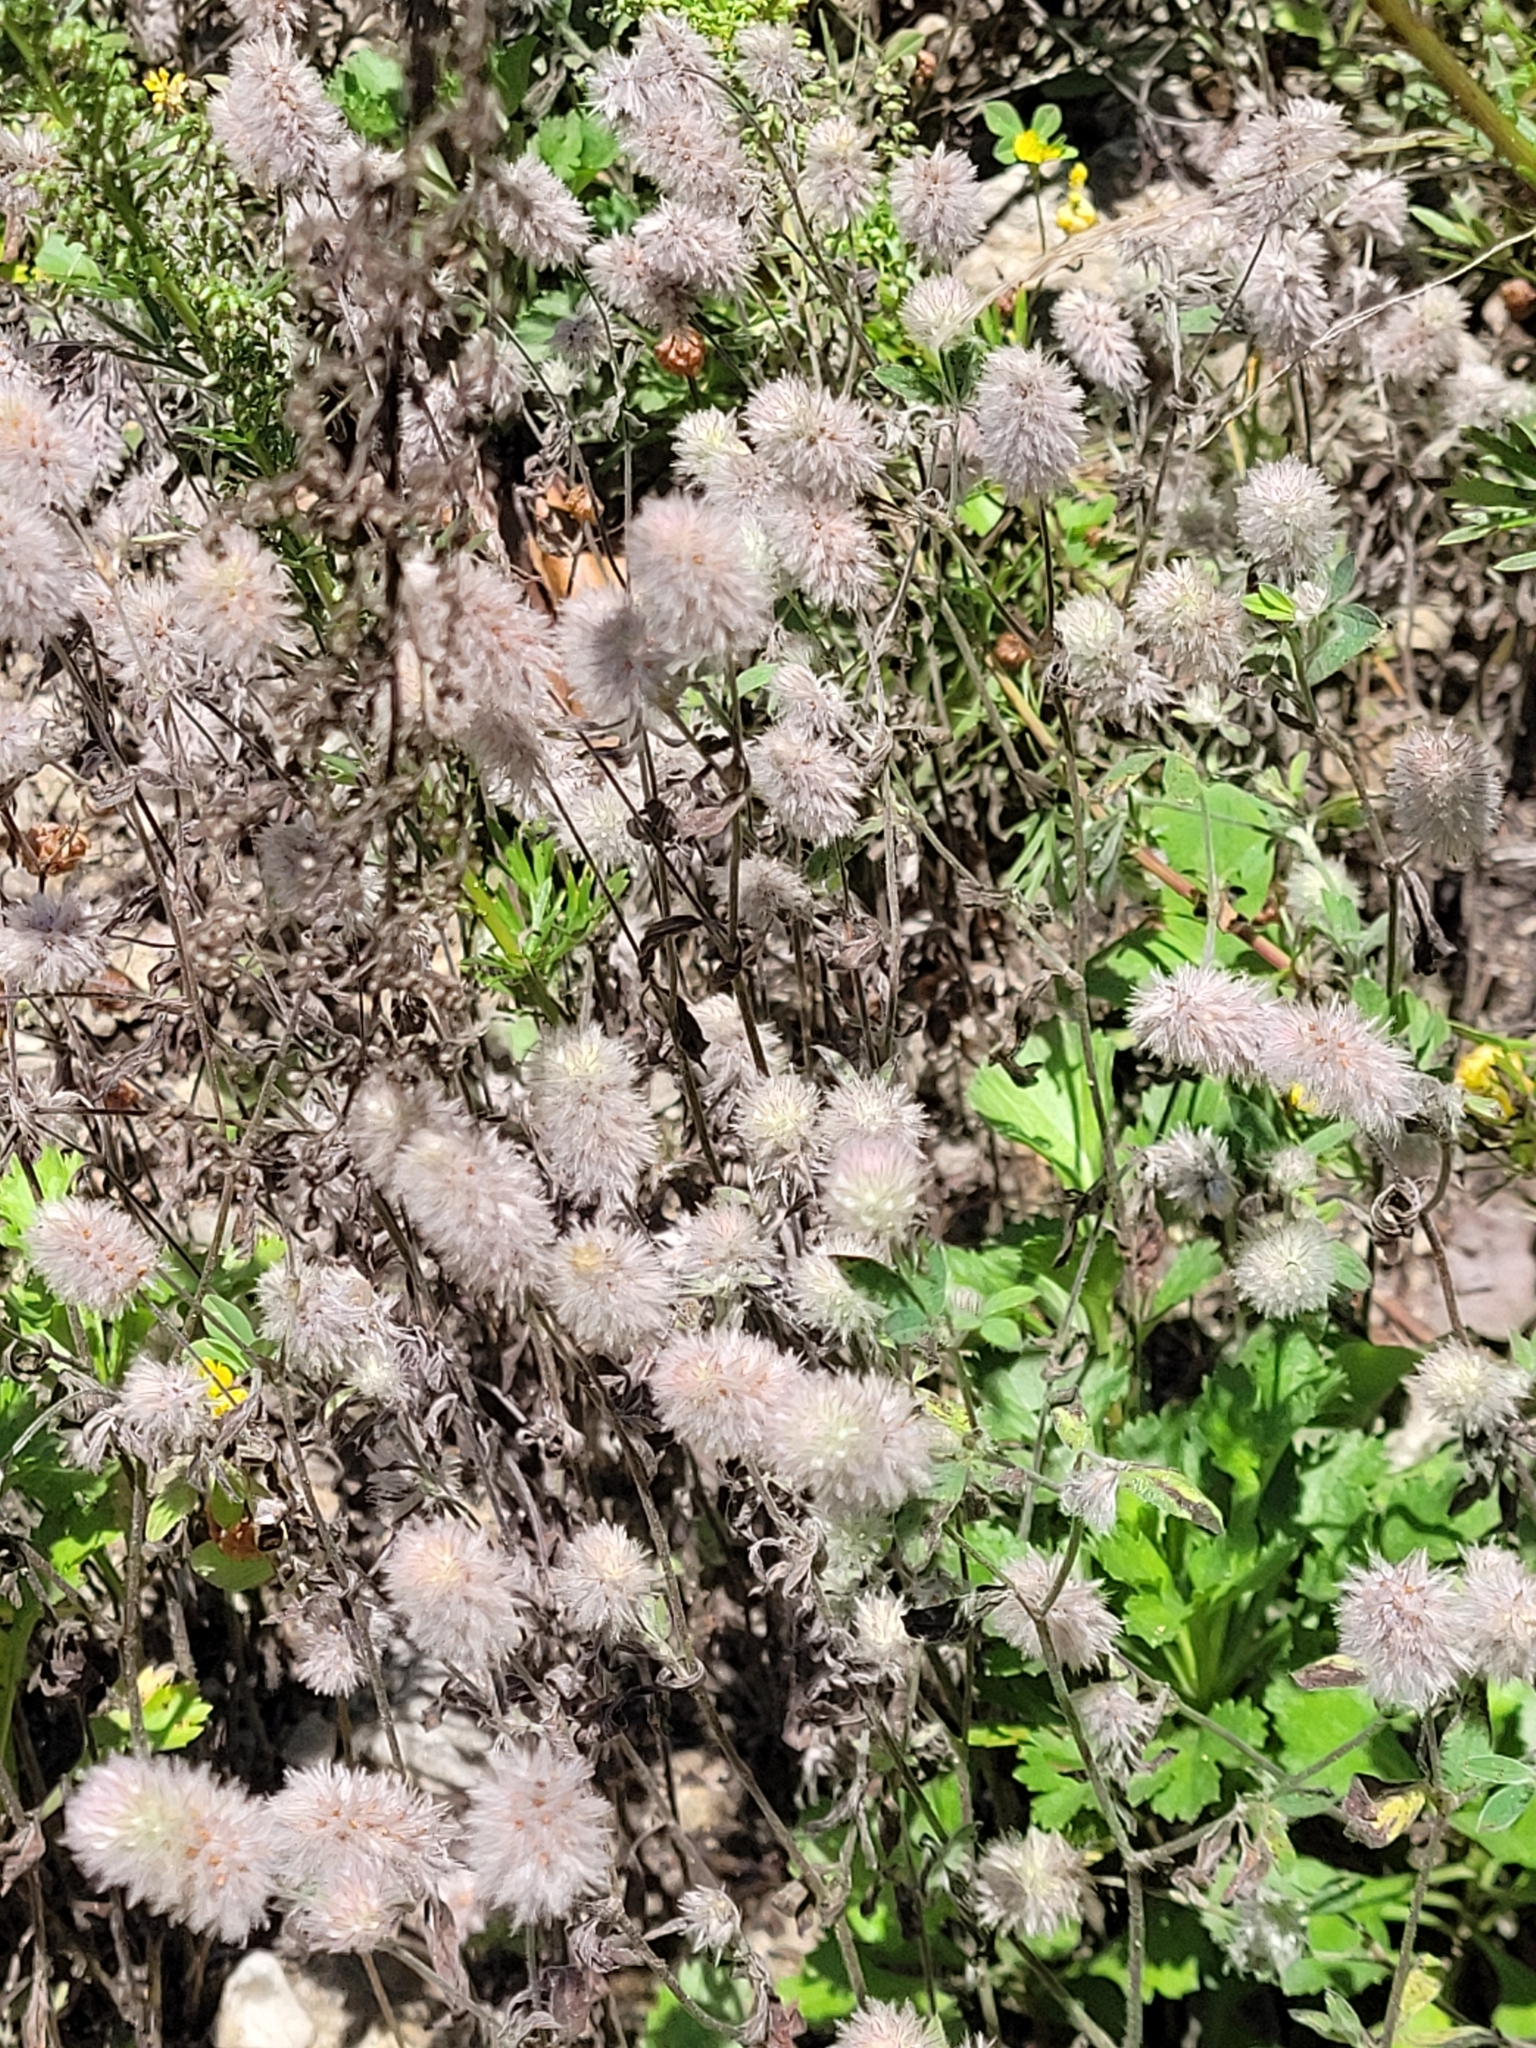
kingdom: Plantae
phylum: Tracheophyta
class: Magnoliopsida
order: Fabales
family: Fabaceae
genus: Trifolium
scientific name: Trifolium arvense
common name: Hare's-foot clover
